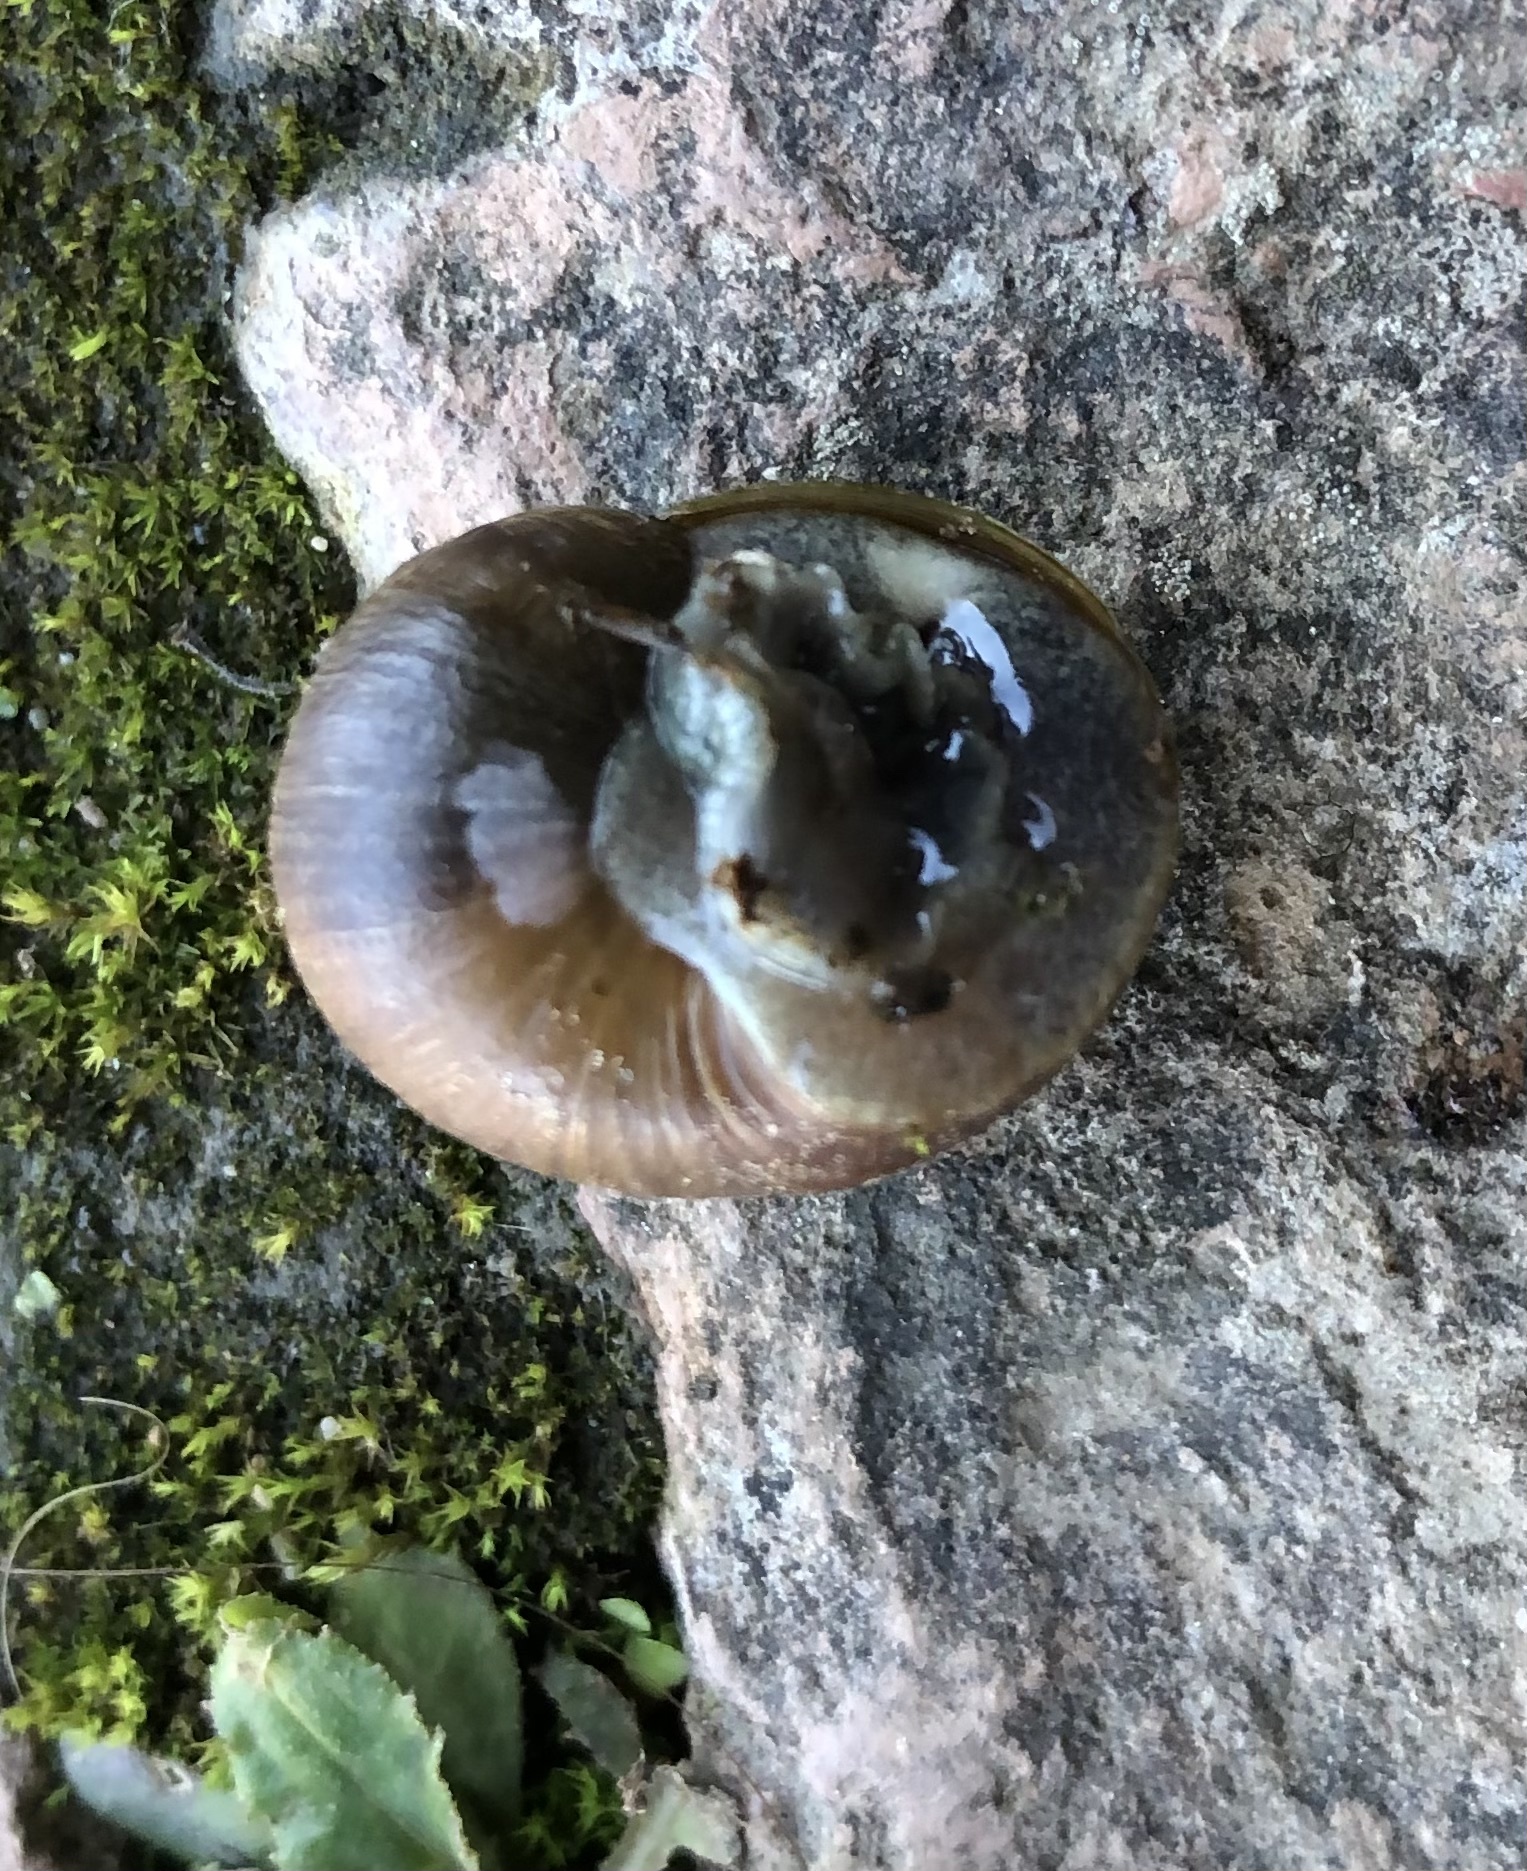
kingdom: Animalia
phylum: Mollusca
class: Gastropoda
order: Stylommatophora
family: Helicidae
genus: Cornu
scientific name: Cornu aspersum
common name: Brown garden snail
